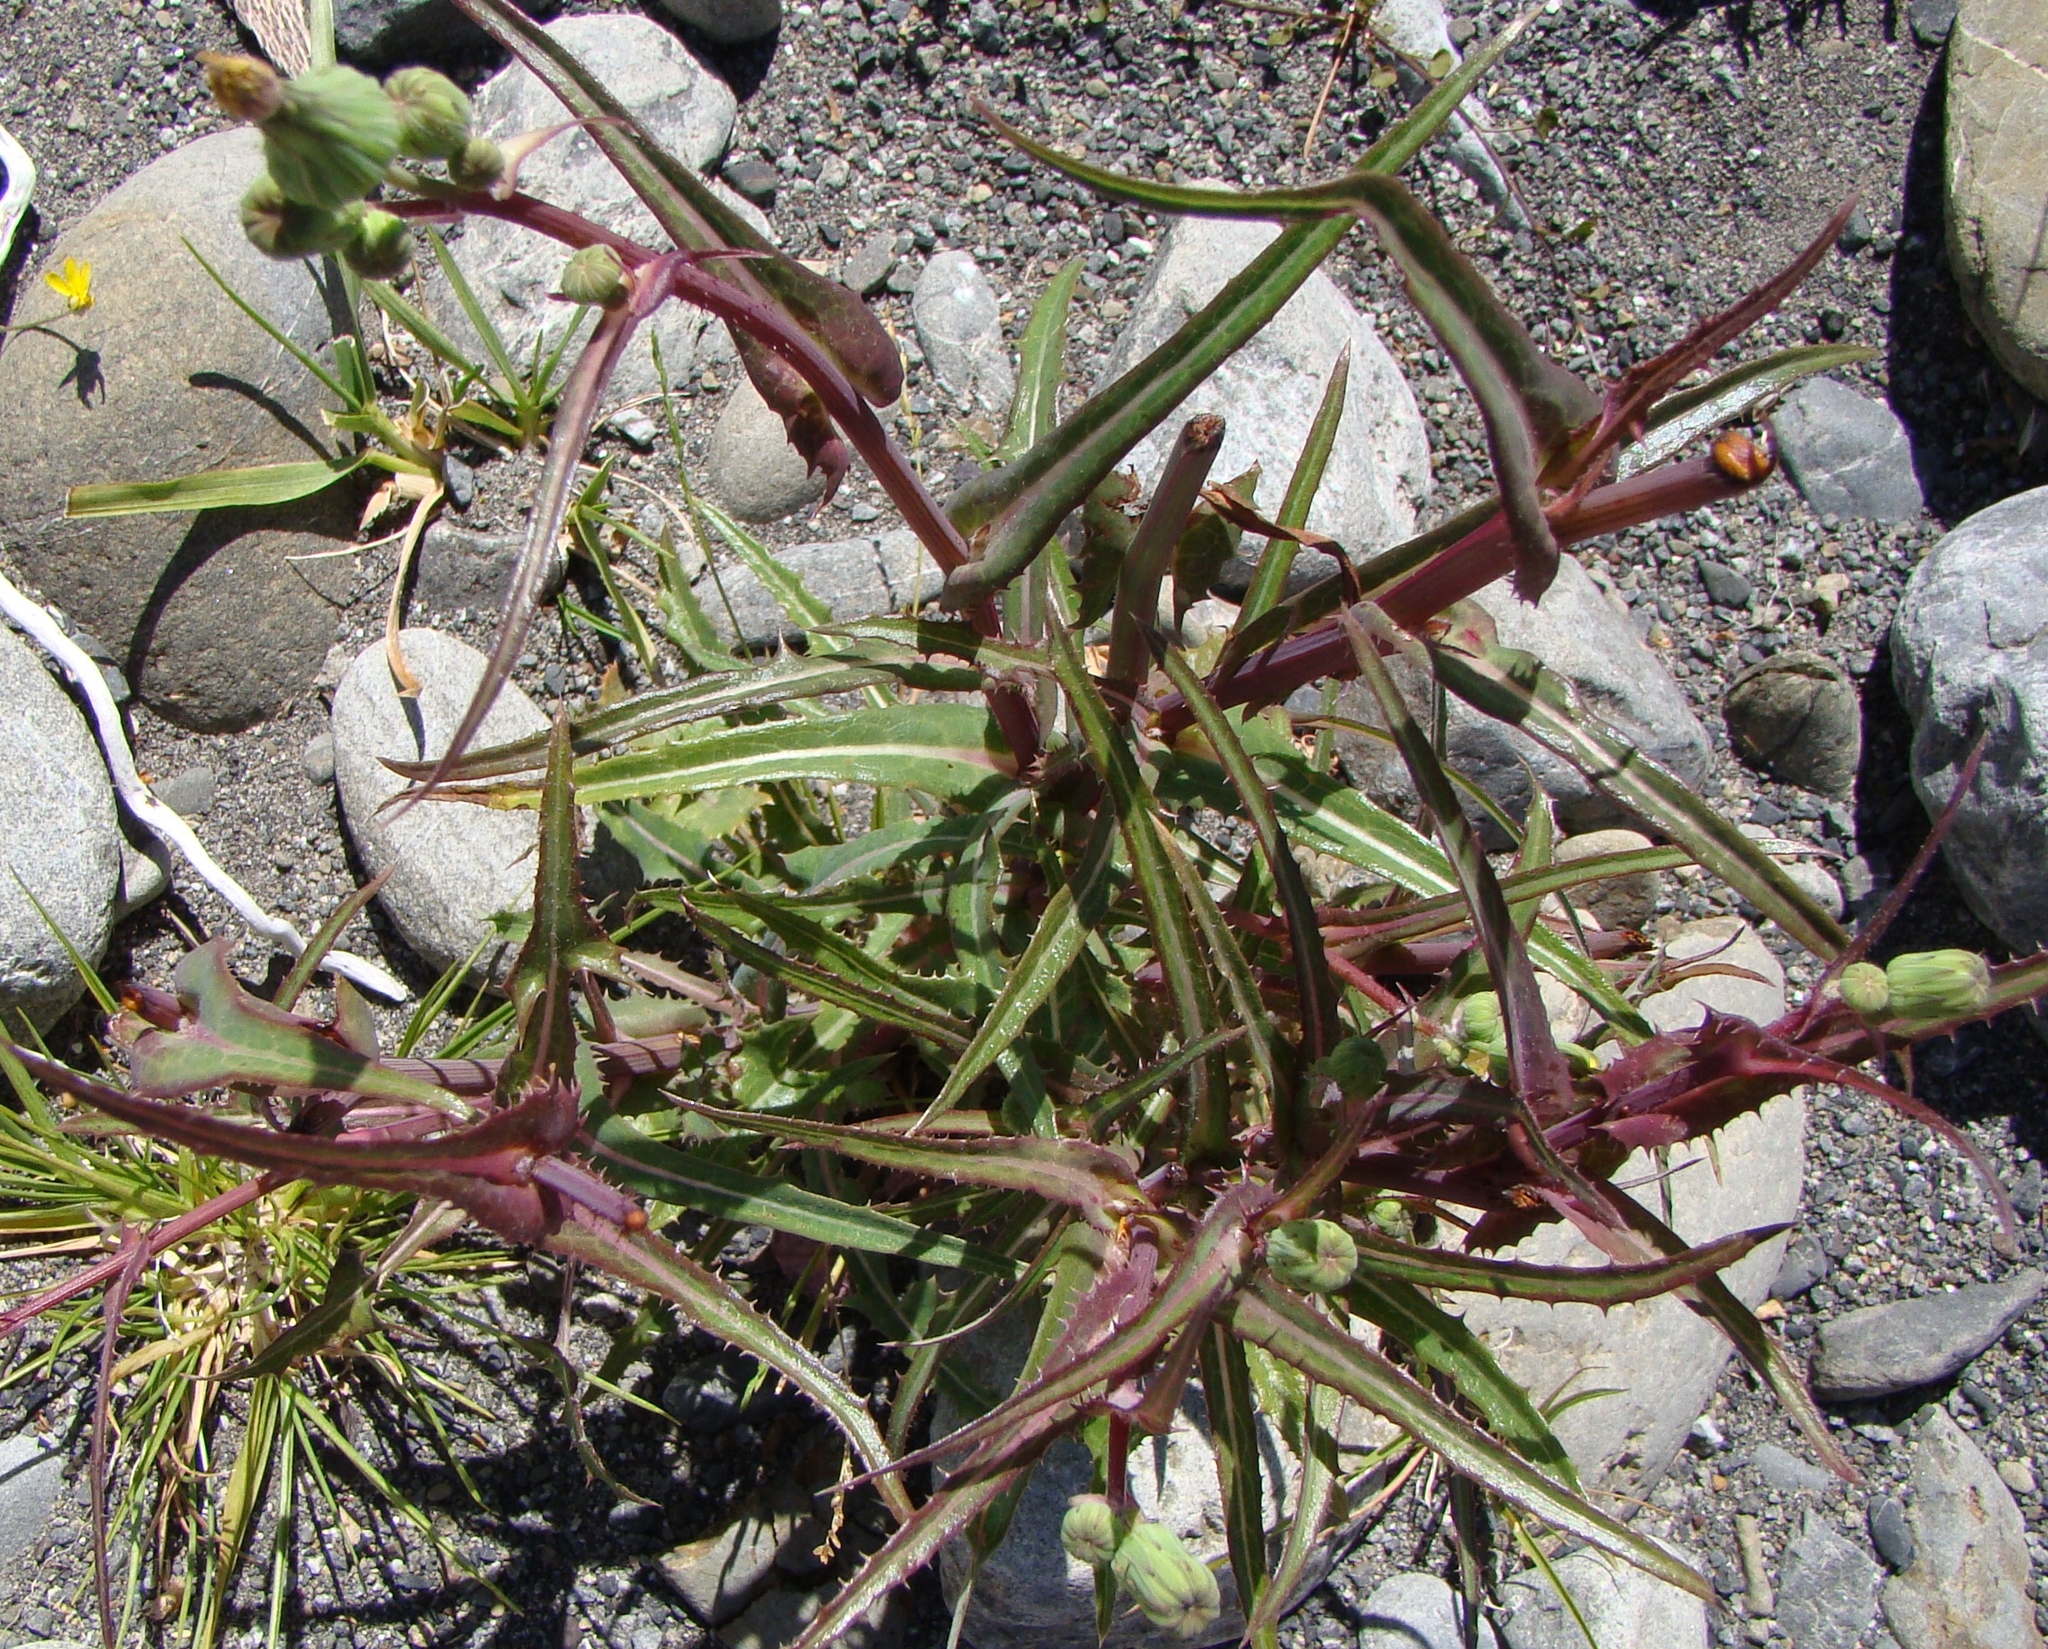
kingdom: Plantae
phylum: Tracheophyta
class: Magnoliopsida
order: Asterales
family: Asteraceae
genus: Sonchus
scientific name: Sonchus asper
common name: Prickly sow-thistle
